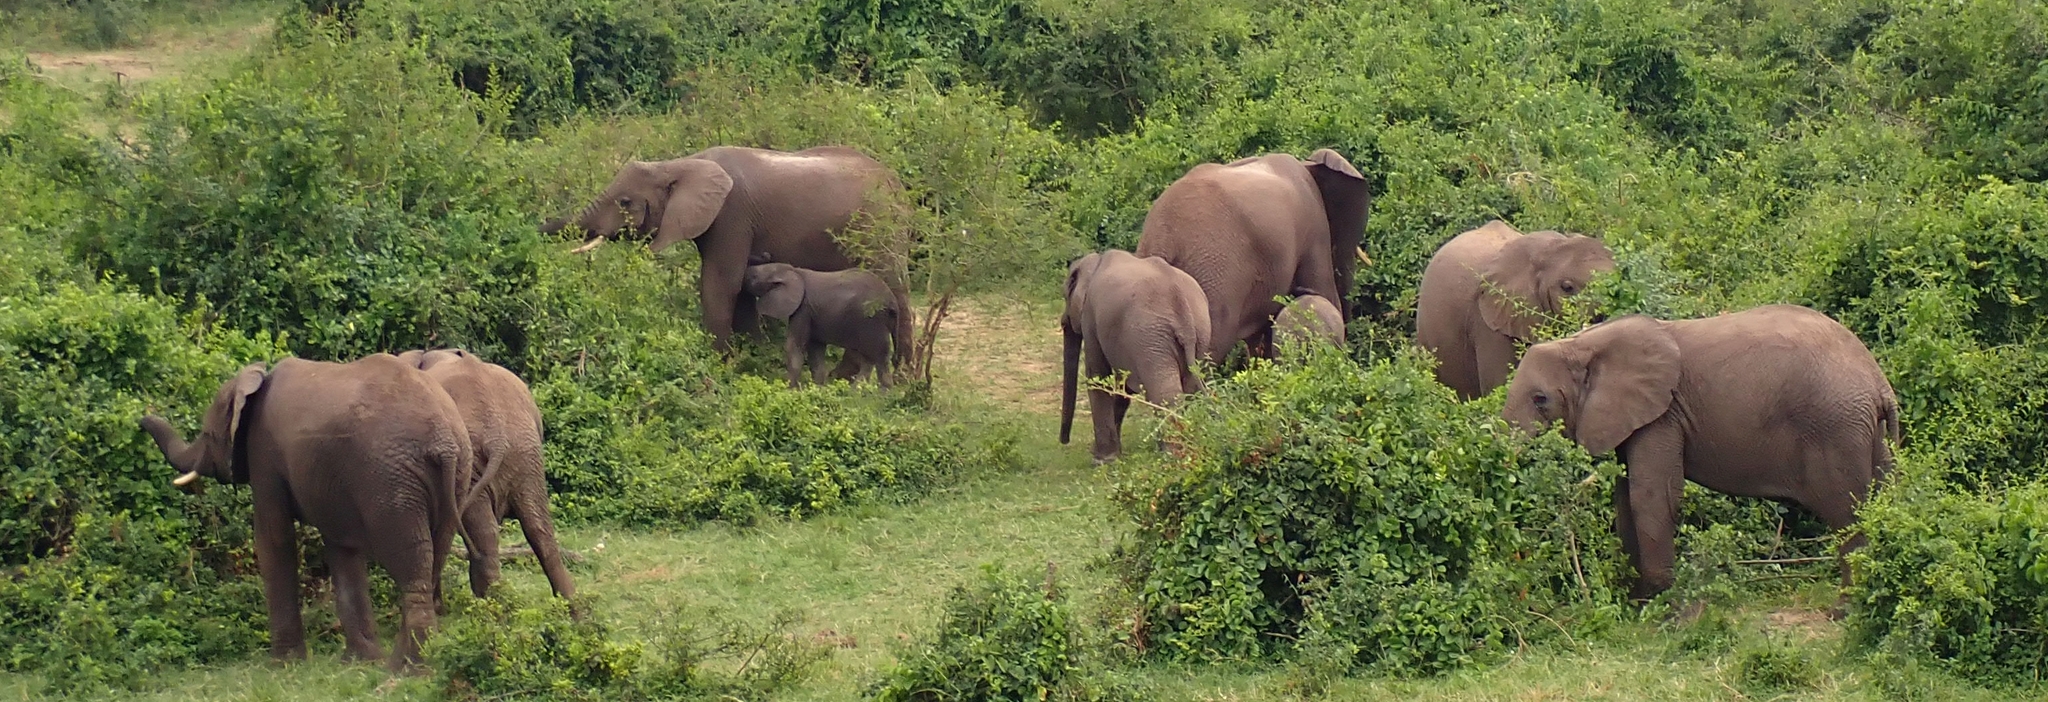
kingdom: Animalia
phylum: Chordata
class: Mammalia
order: Proboscidea
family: Elephantidae
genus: Loxodonta
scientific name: Loxodonta africana
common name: African elephant
